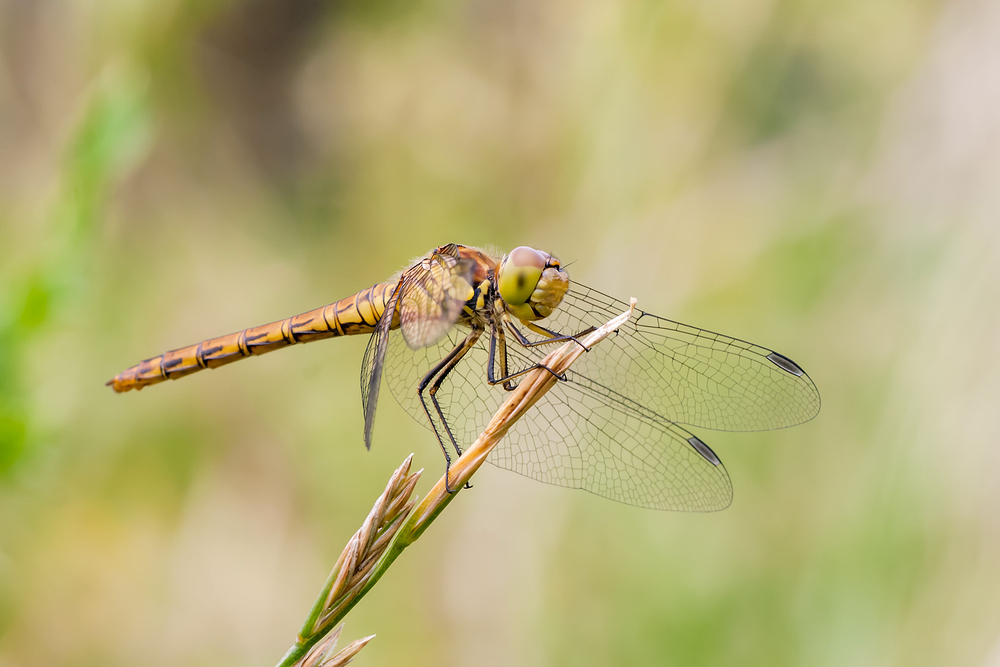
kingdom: Animalia
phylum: Arthropoda
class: Insecta
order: Odonata
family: Libellulidae
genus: Sympetrum
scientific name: Sympetrum striolatum
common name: Common darter
